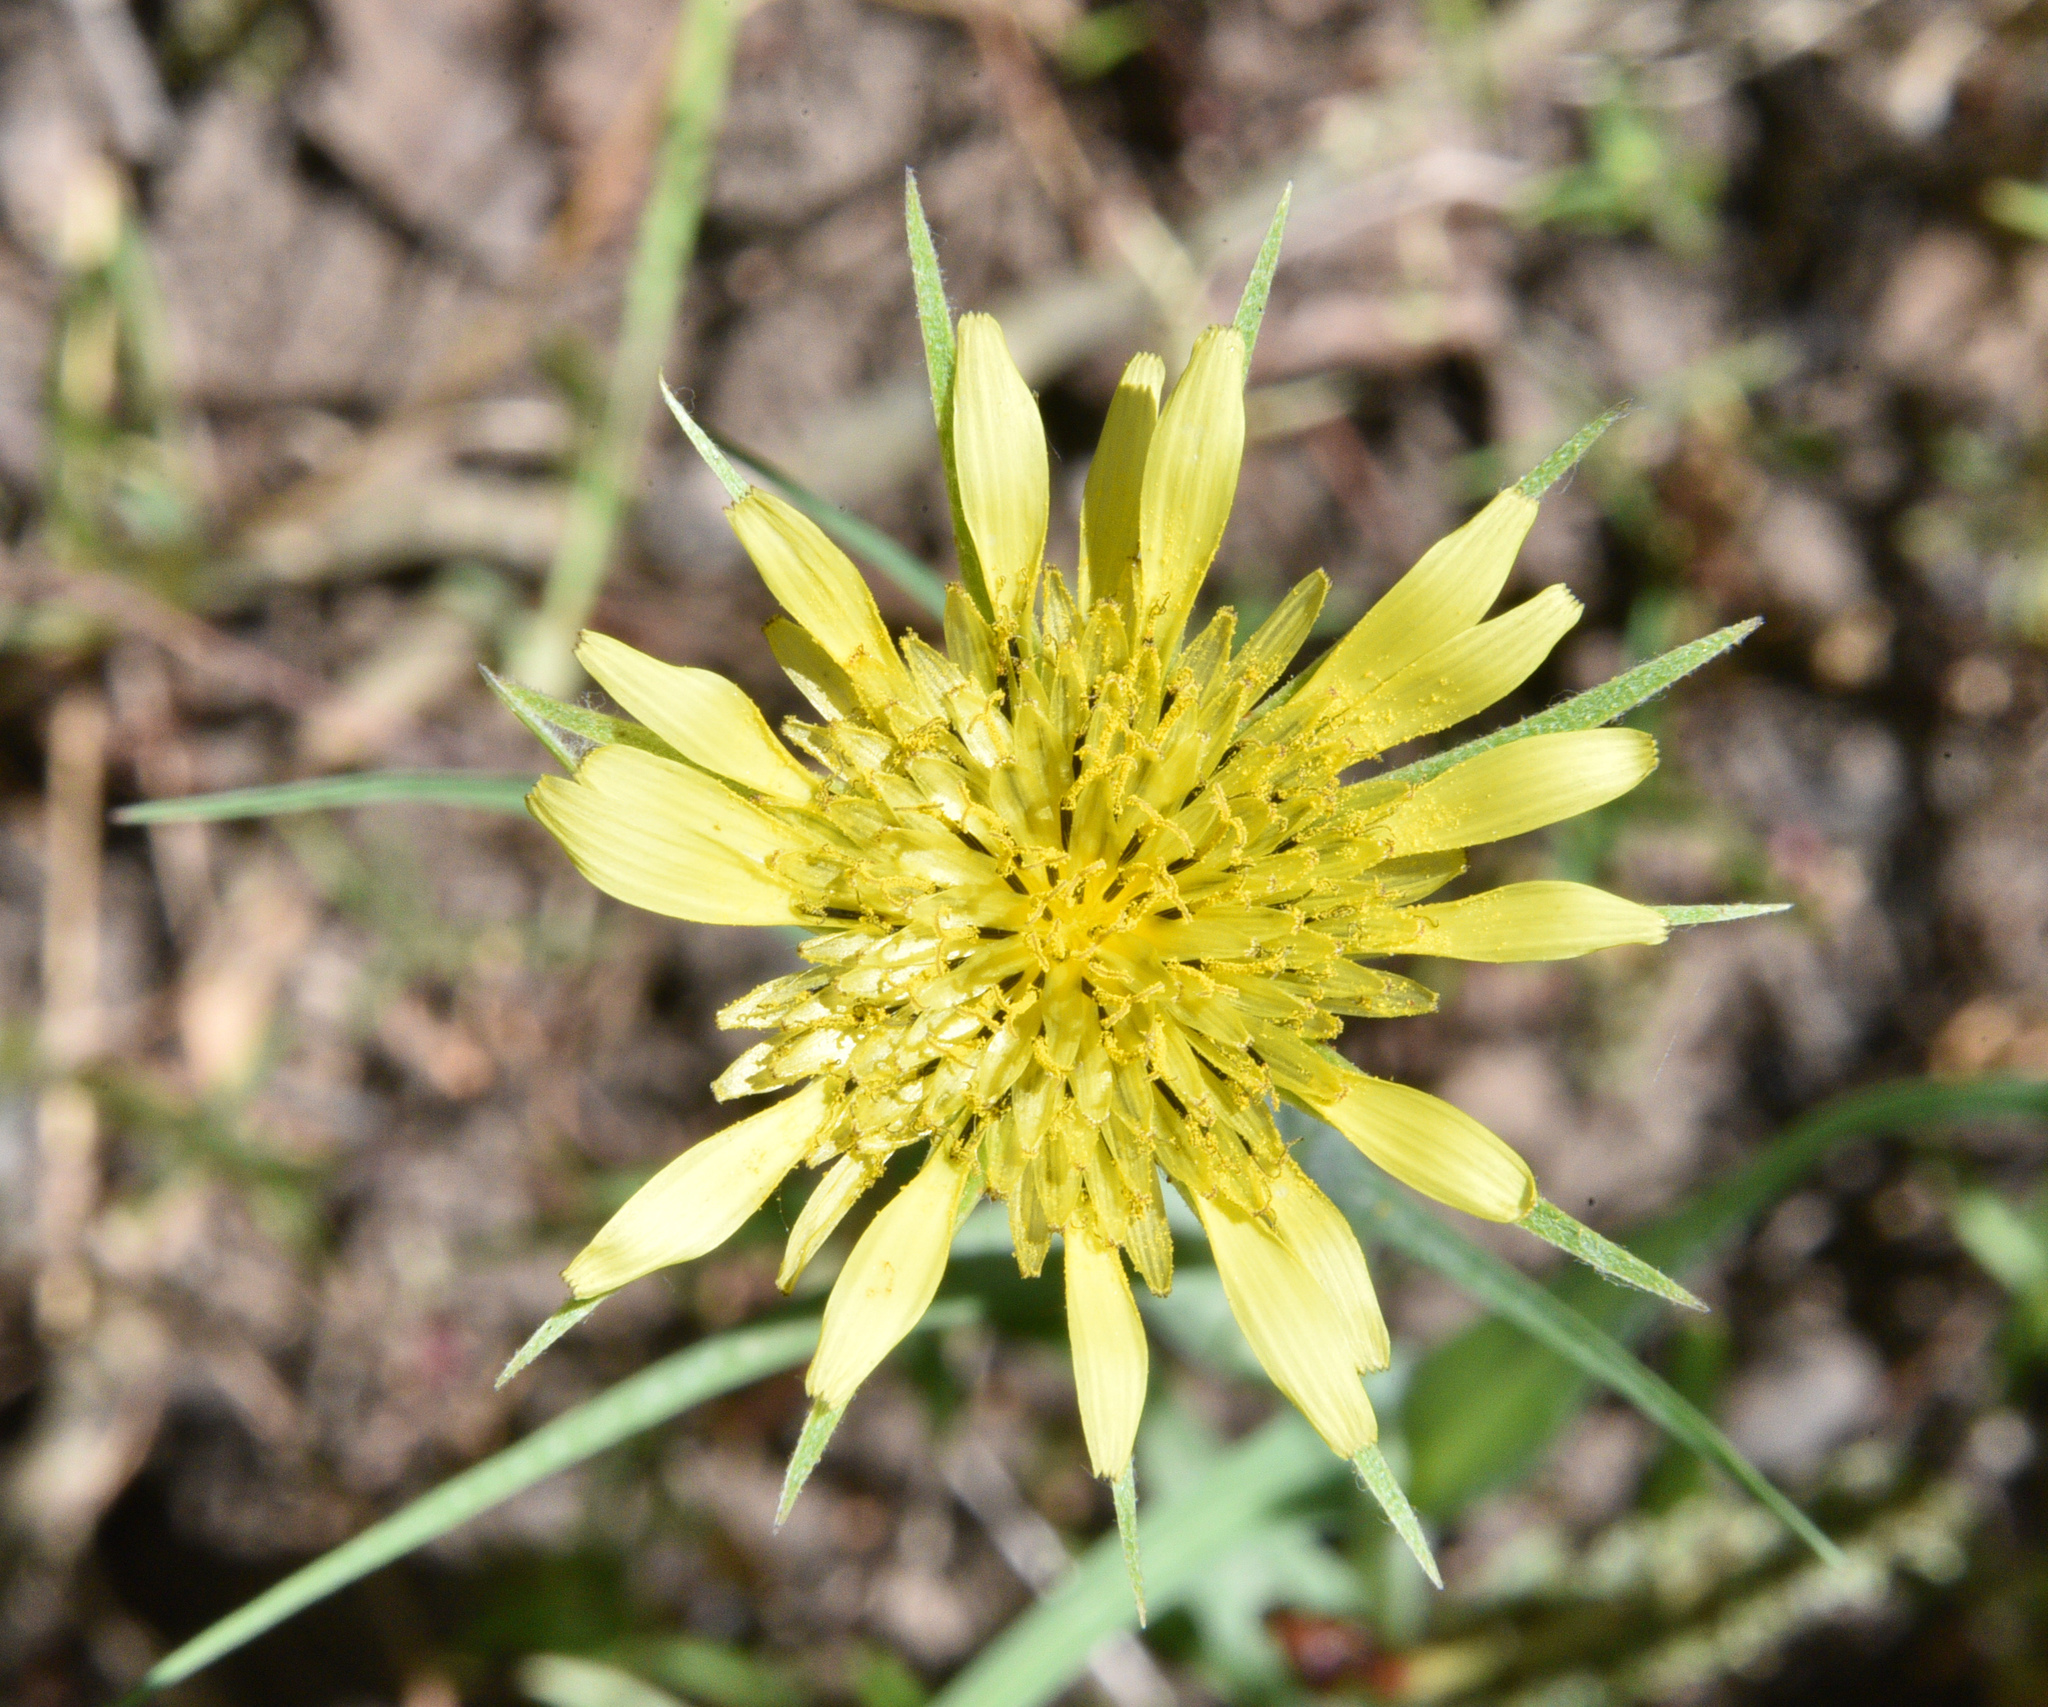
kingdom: Plantae
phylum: Tracheophyta
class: Magnoliopsida
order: Asterales
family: Asteraceae
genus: Tragopogon
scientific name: Tragopogon dubius
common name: Yellow salsify
